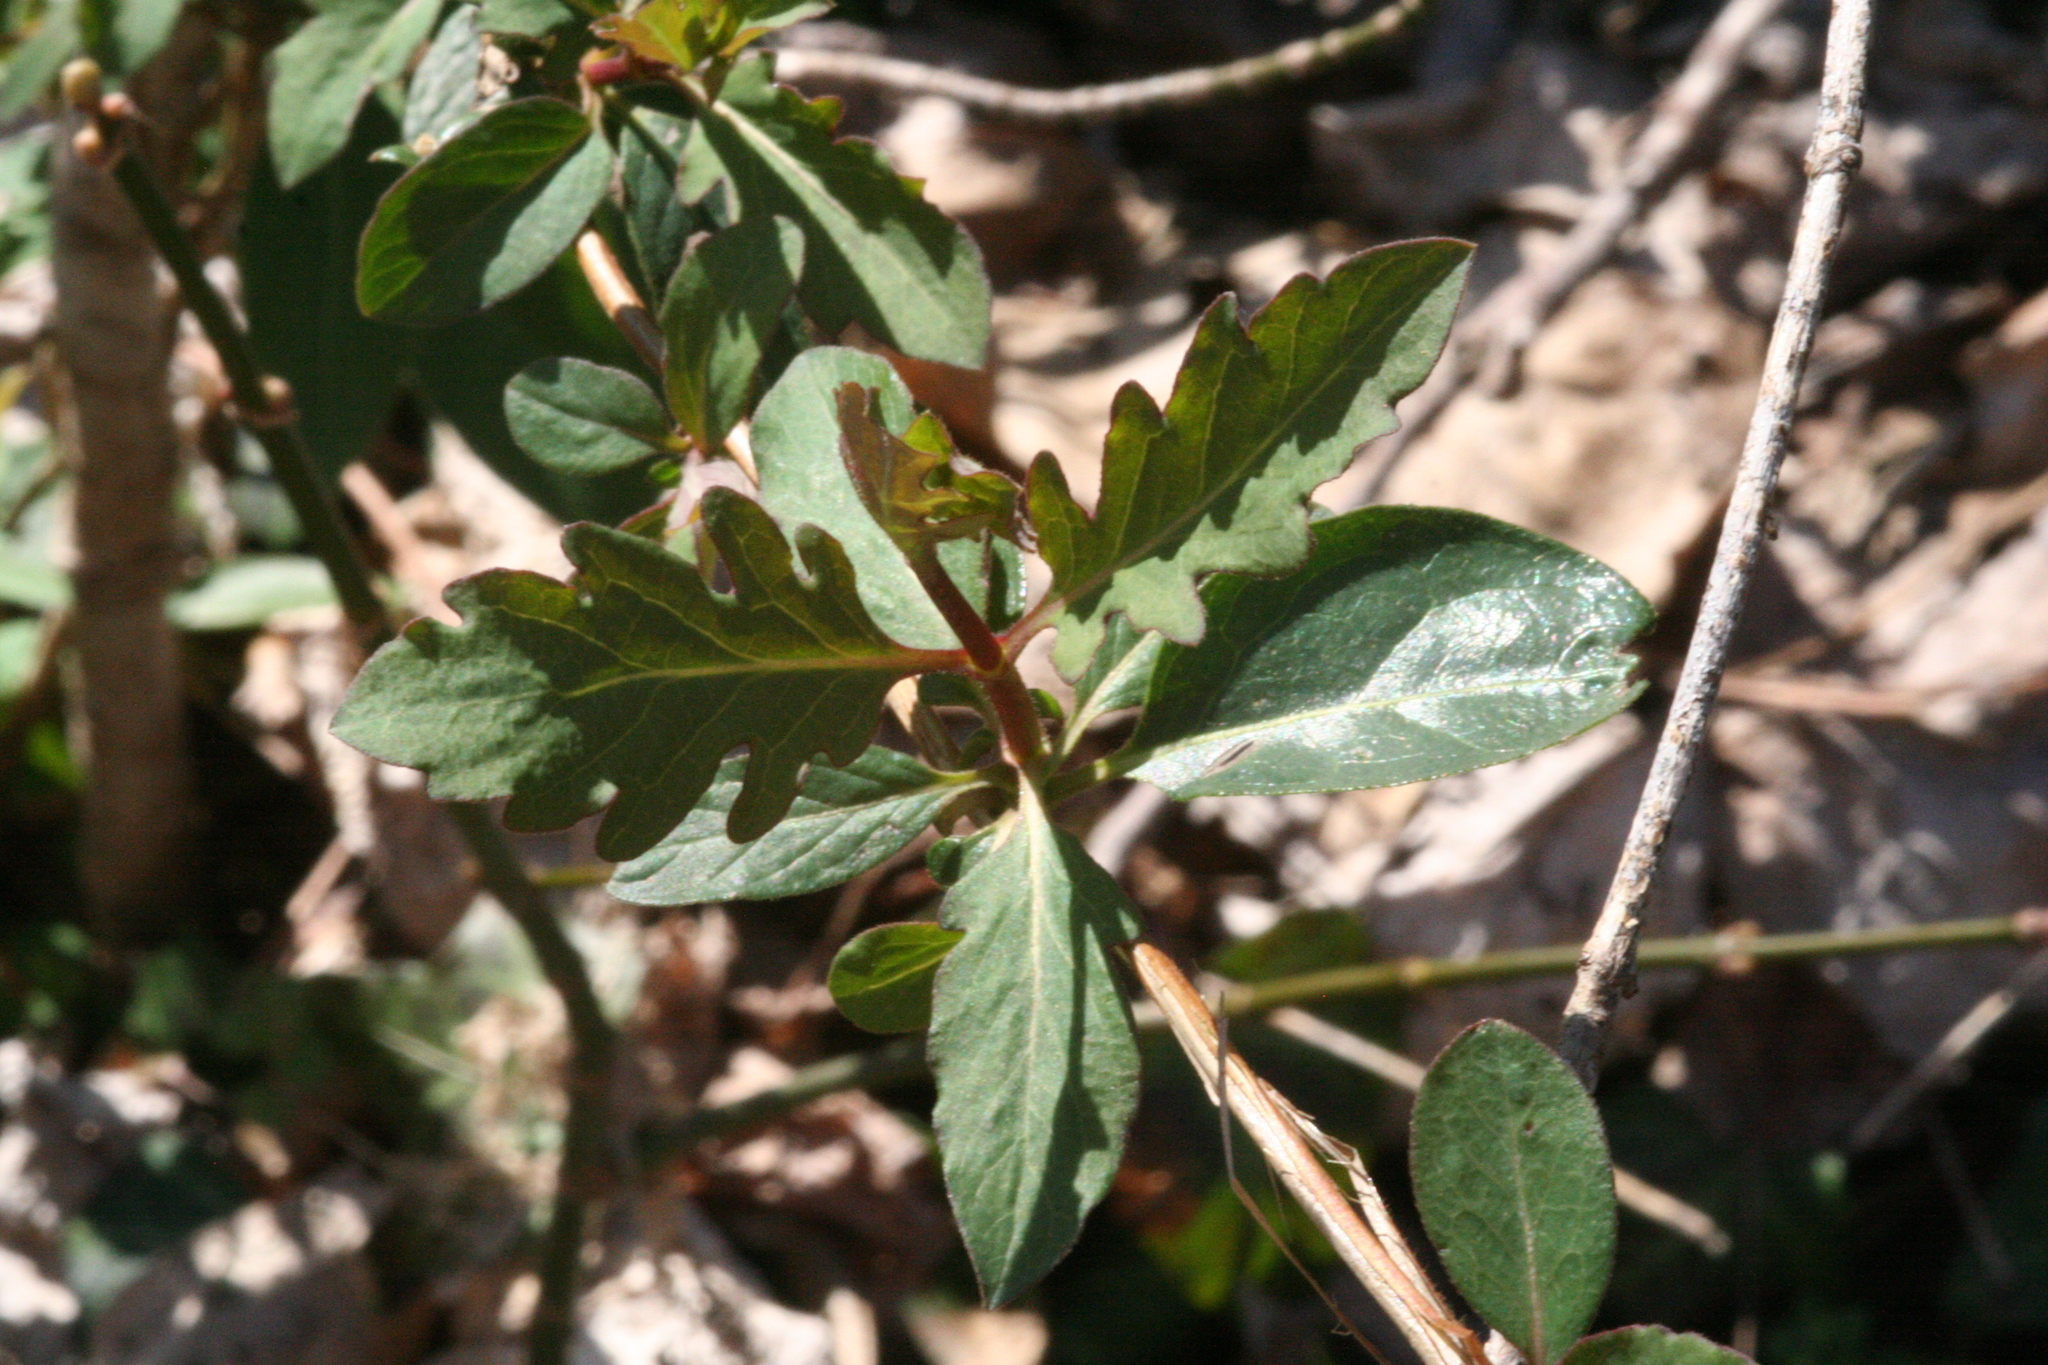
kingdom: Plantae
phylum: Tracheophyta
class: Magnoliopsida
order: Dipsacales
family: Caprifoliaceae
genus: Lonicera
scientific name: Lonicera japonica
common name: Japanese honeysuckle
